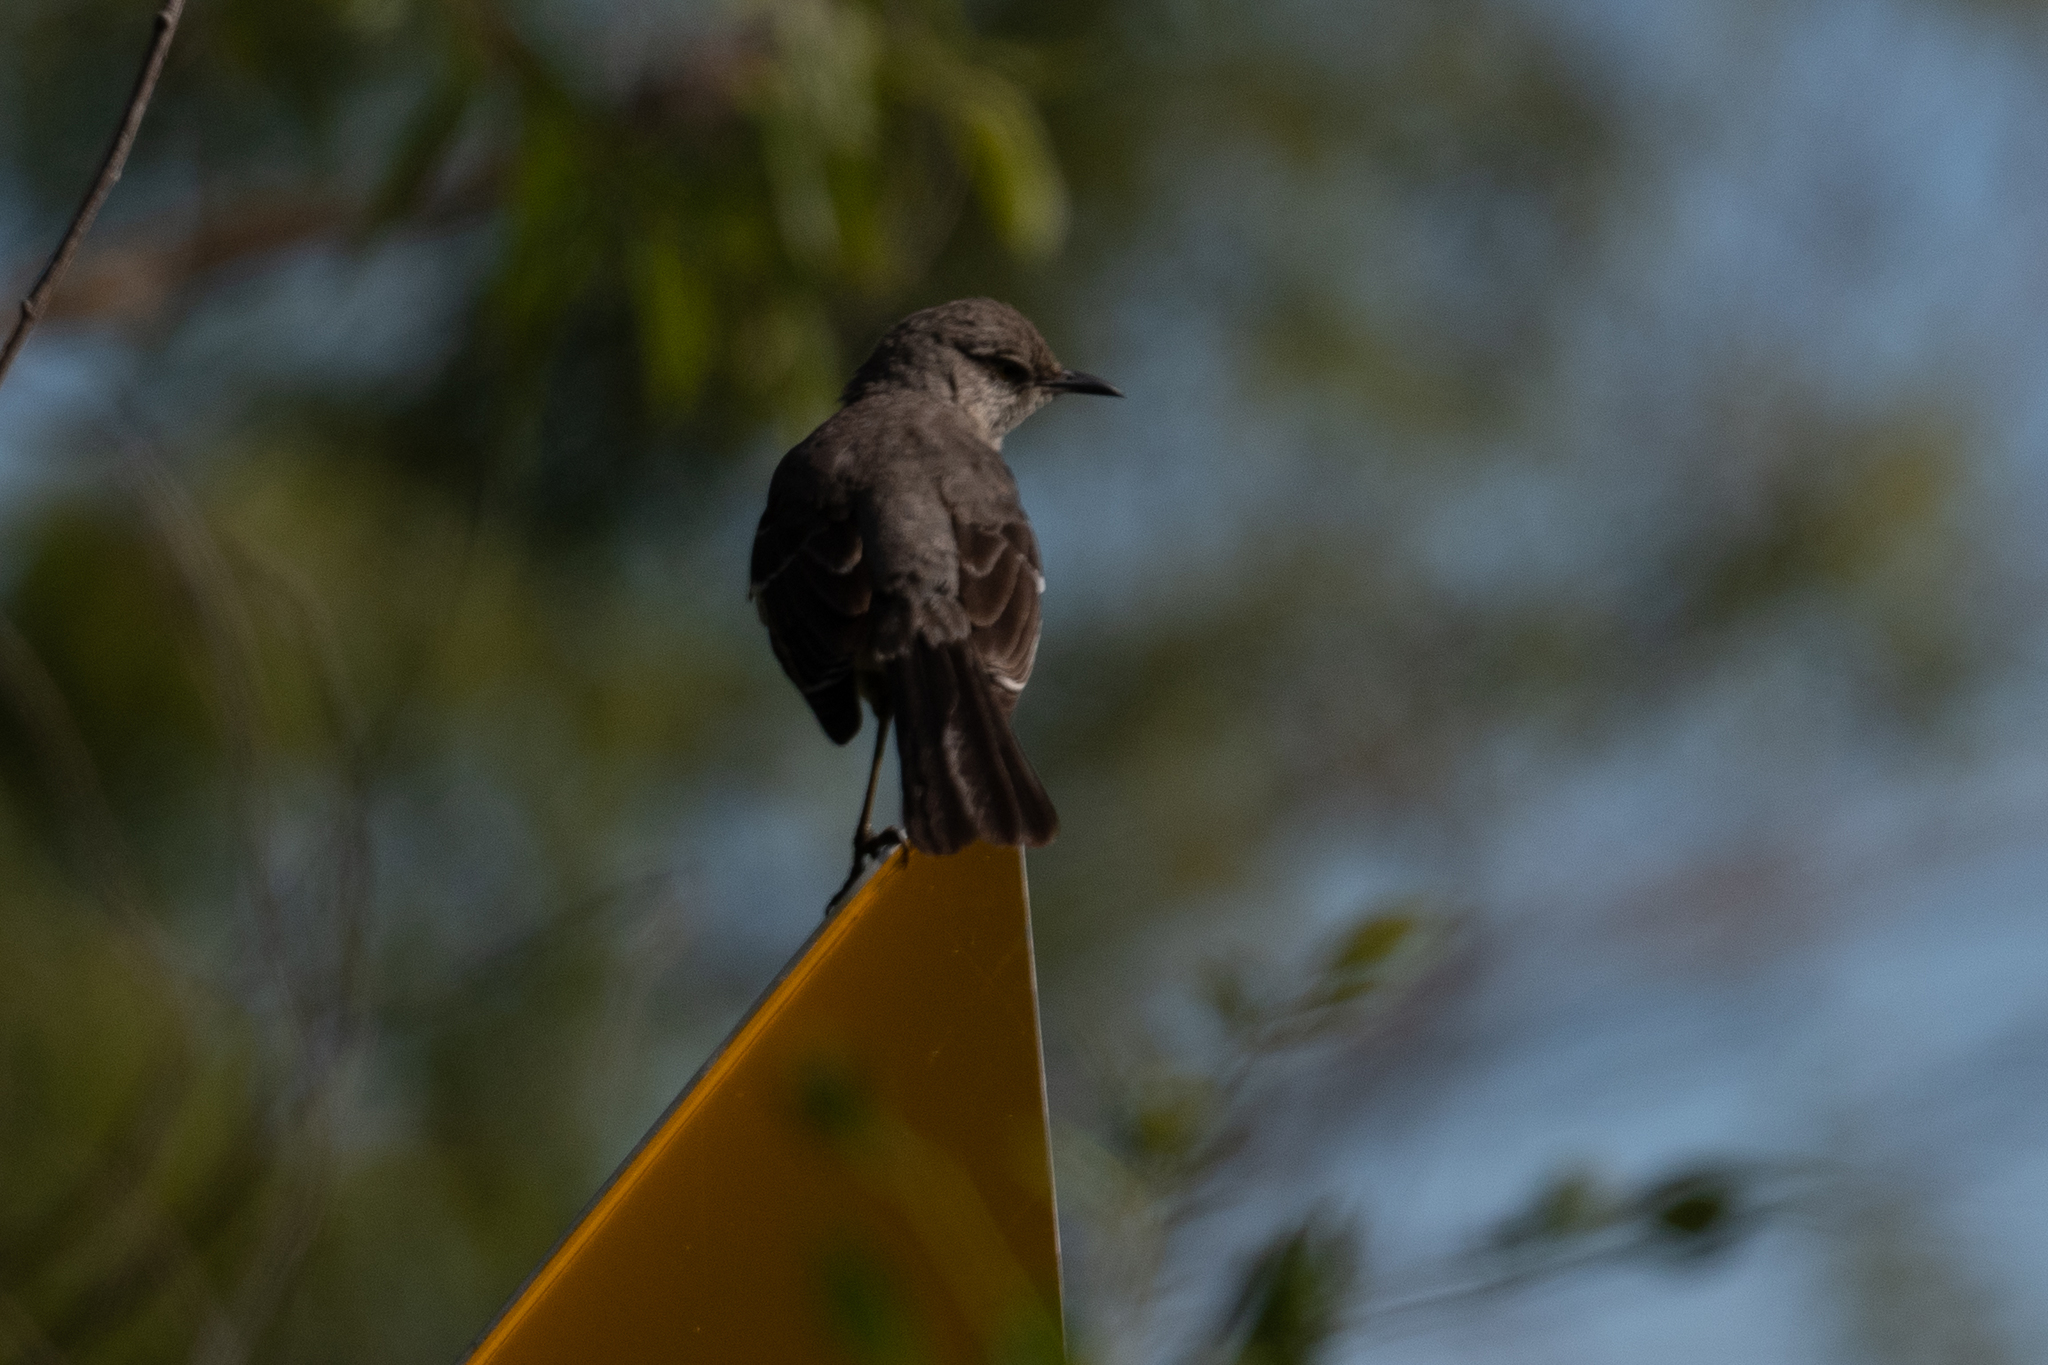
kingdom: Animalia
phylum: Chordata
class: Aves
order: Passeriformes
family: Mimidae
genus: Mimus
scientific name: Mimus polyglottos
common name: Northern mockingbird
